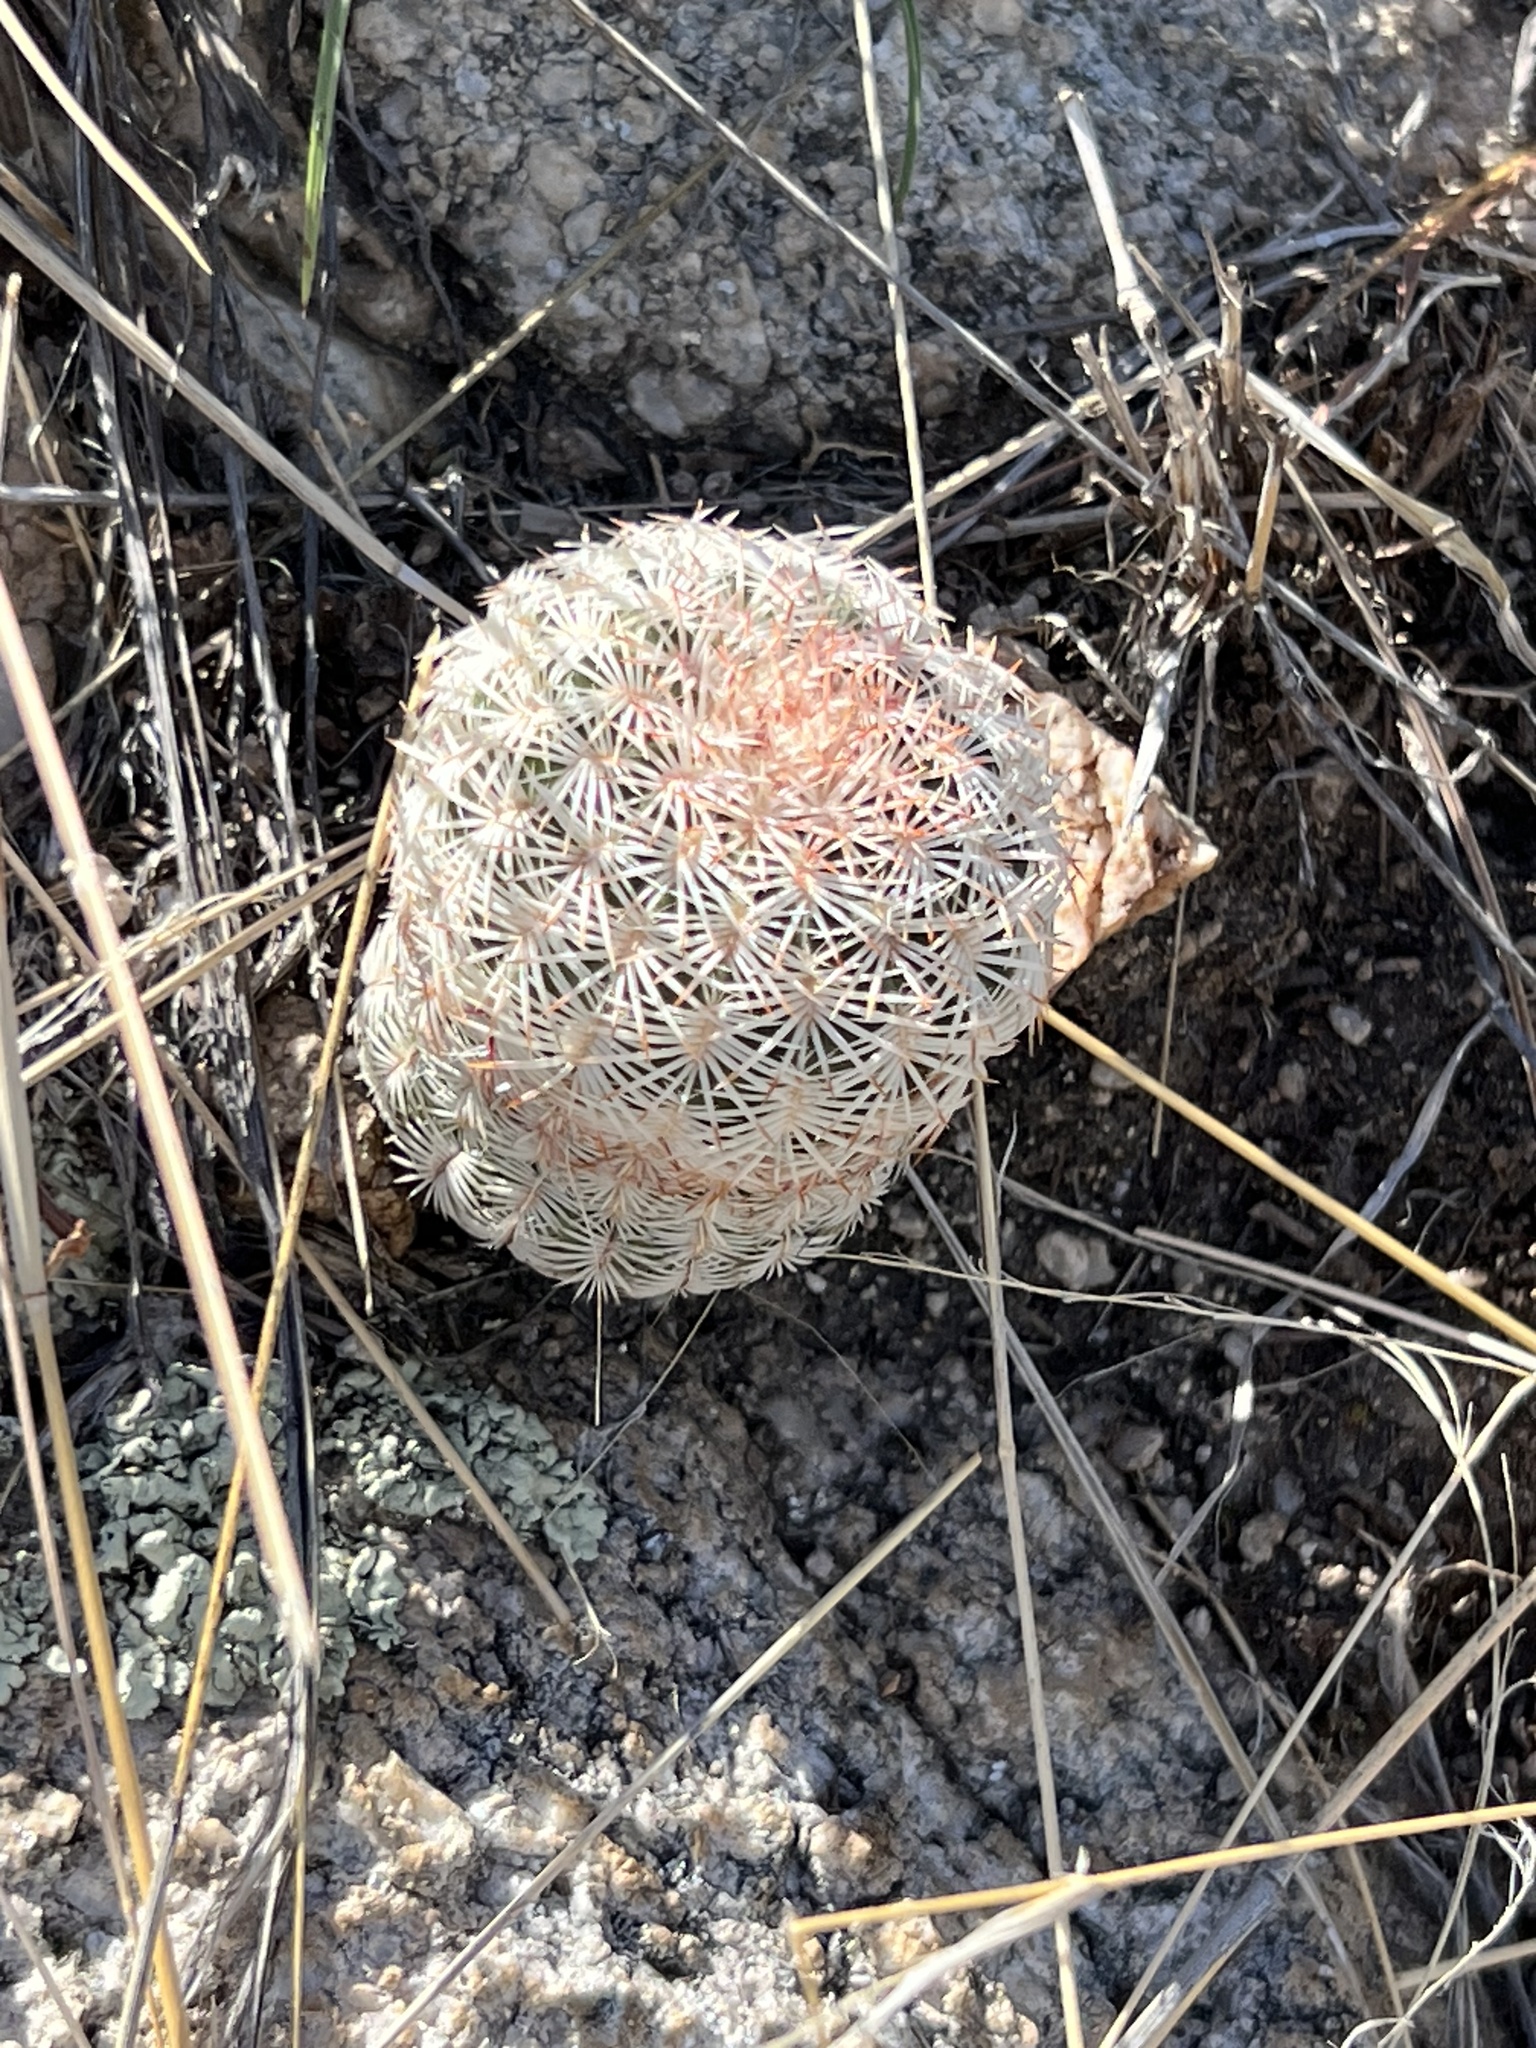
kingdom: Plantae
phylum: Tracheophyta
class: Magnoliopsida
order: Caryophyllales
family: Cactaceae
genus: Echinocereus
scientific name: Echinocereus rigidissimus
